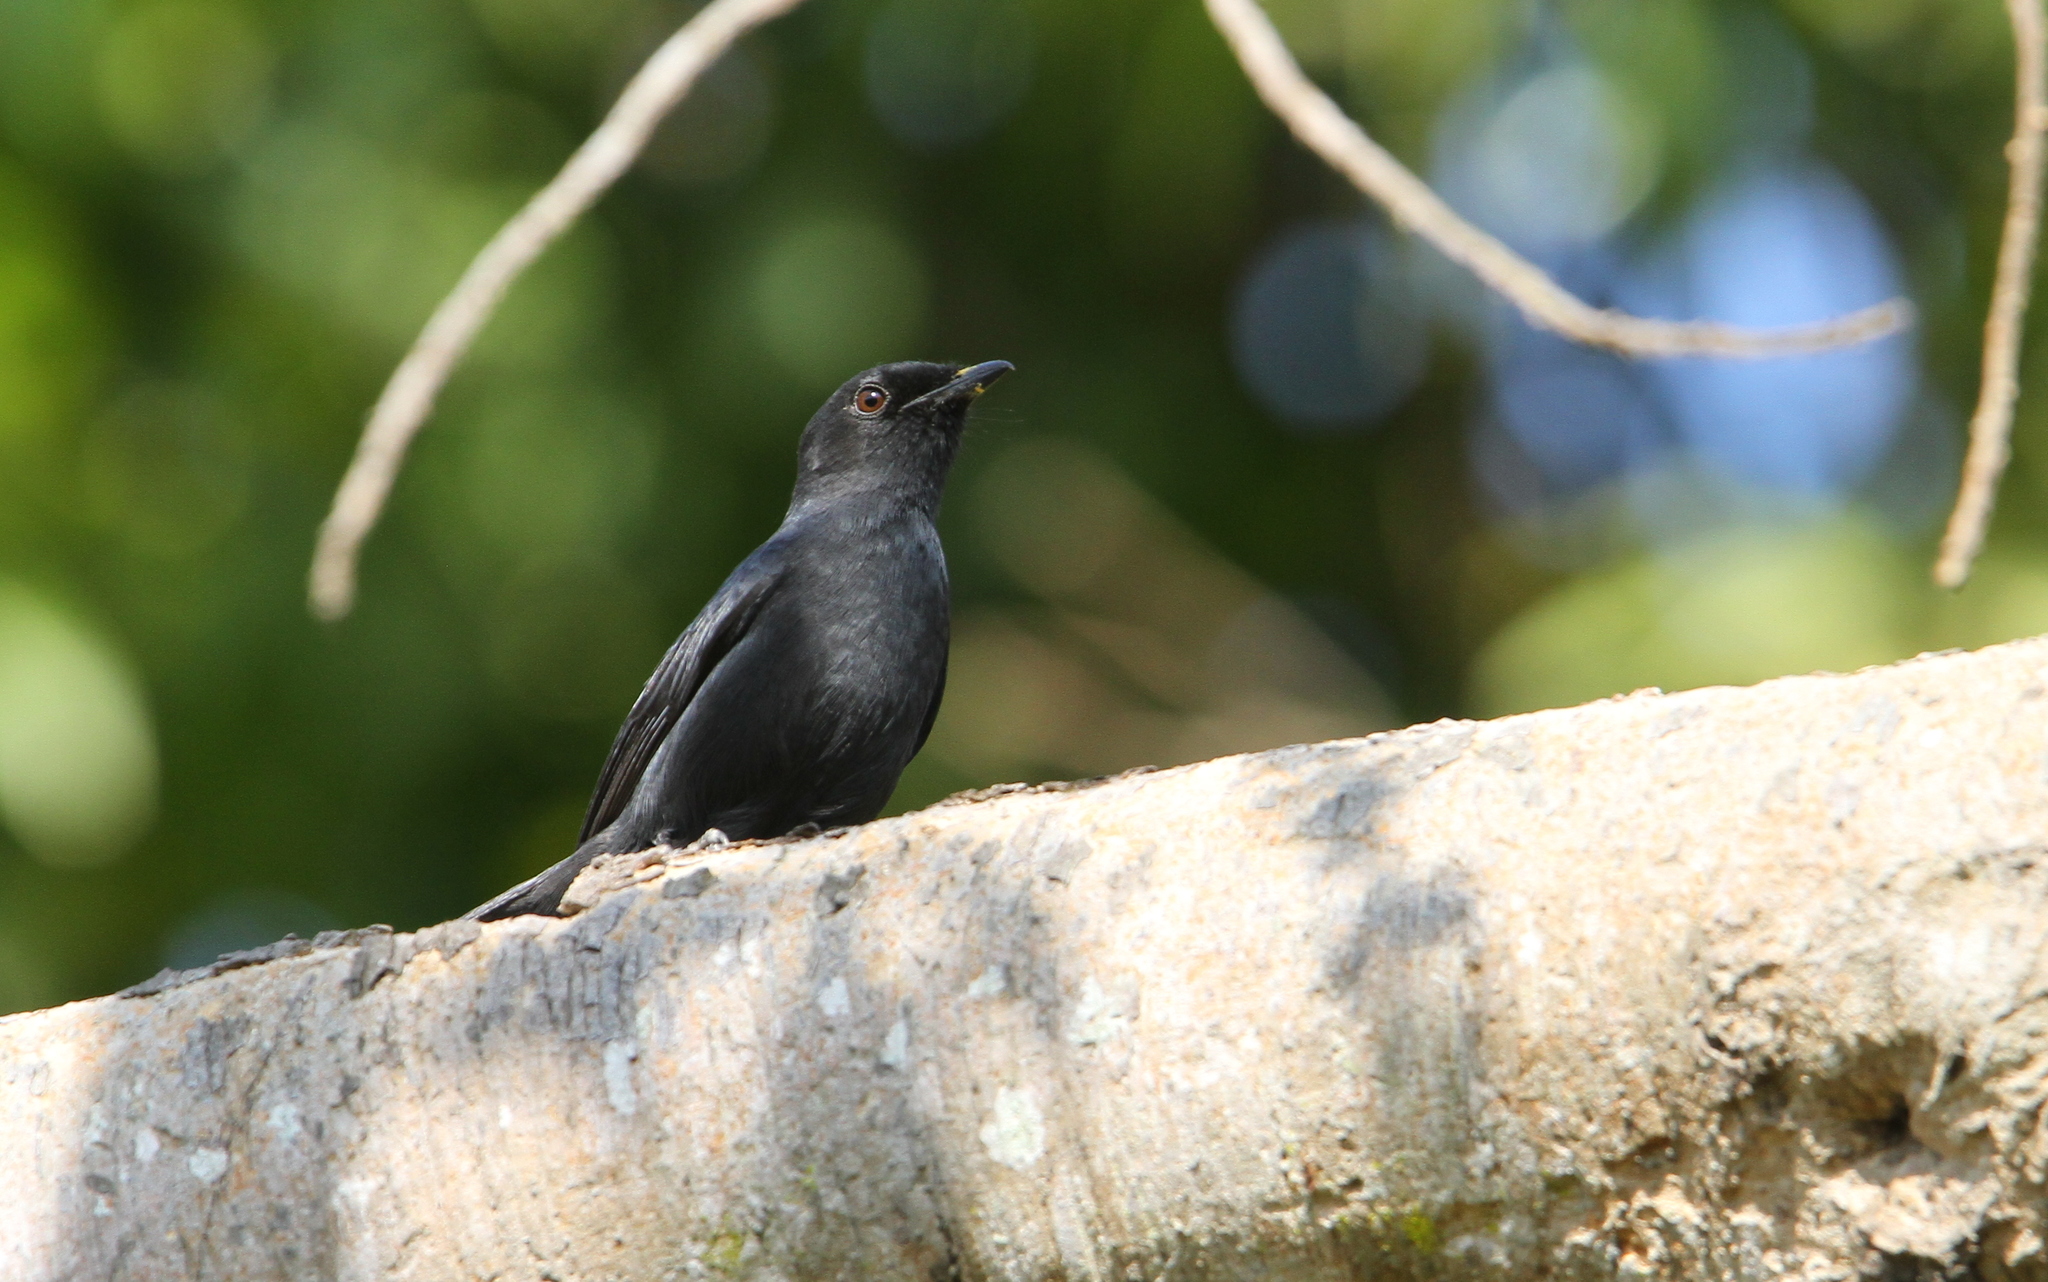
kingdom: Animalia
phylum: Chordata
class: Aves
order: Passeriformes
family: Muscicapidae
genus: Melaenornis
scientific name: Melaenornis edolioides
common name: Northern black flycatcher
